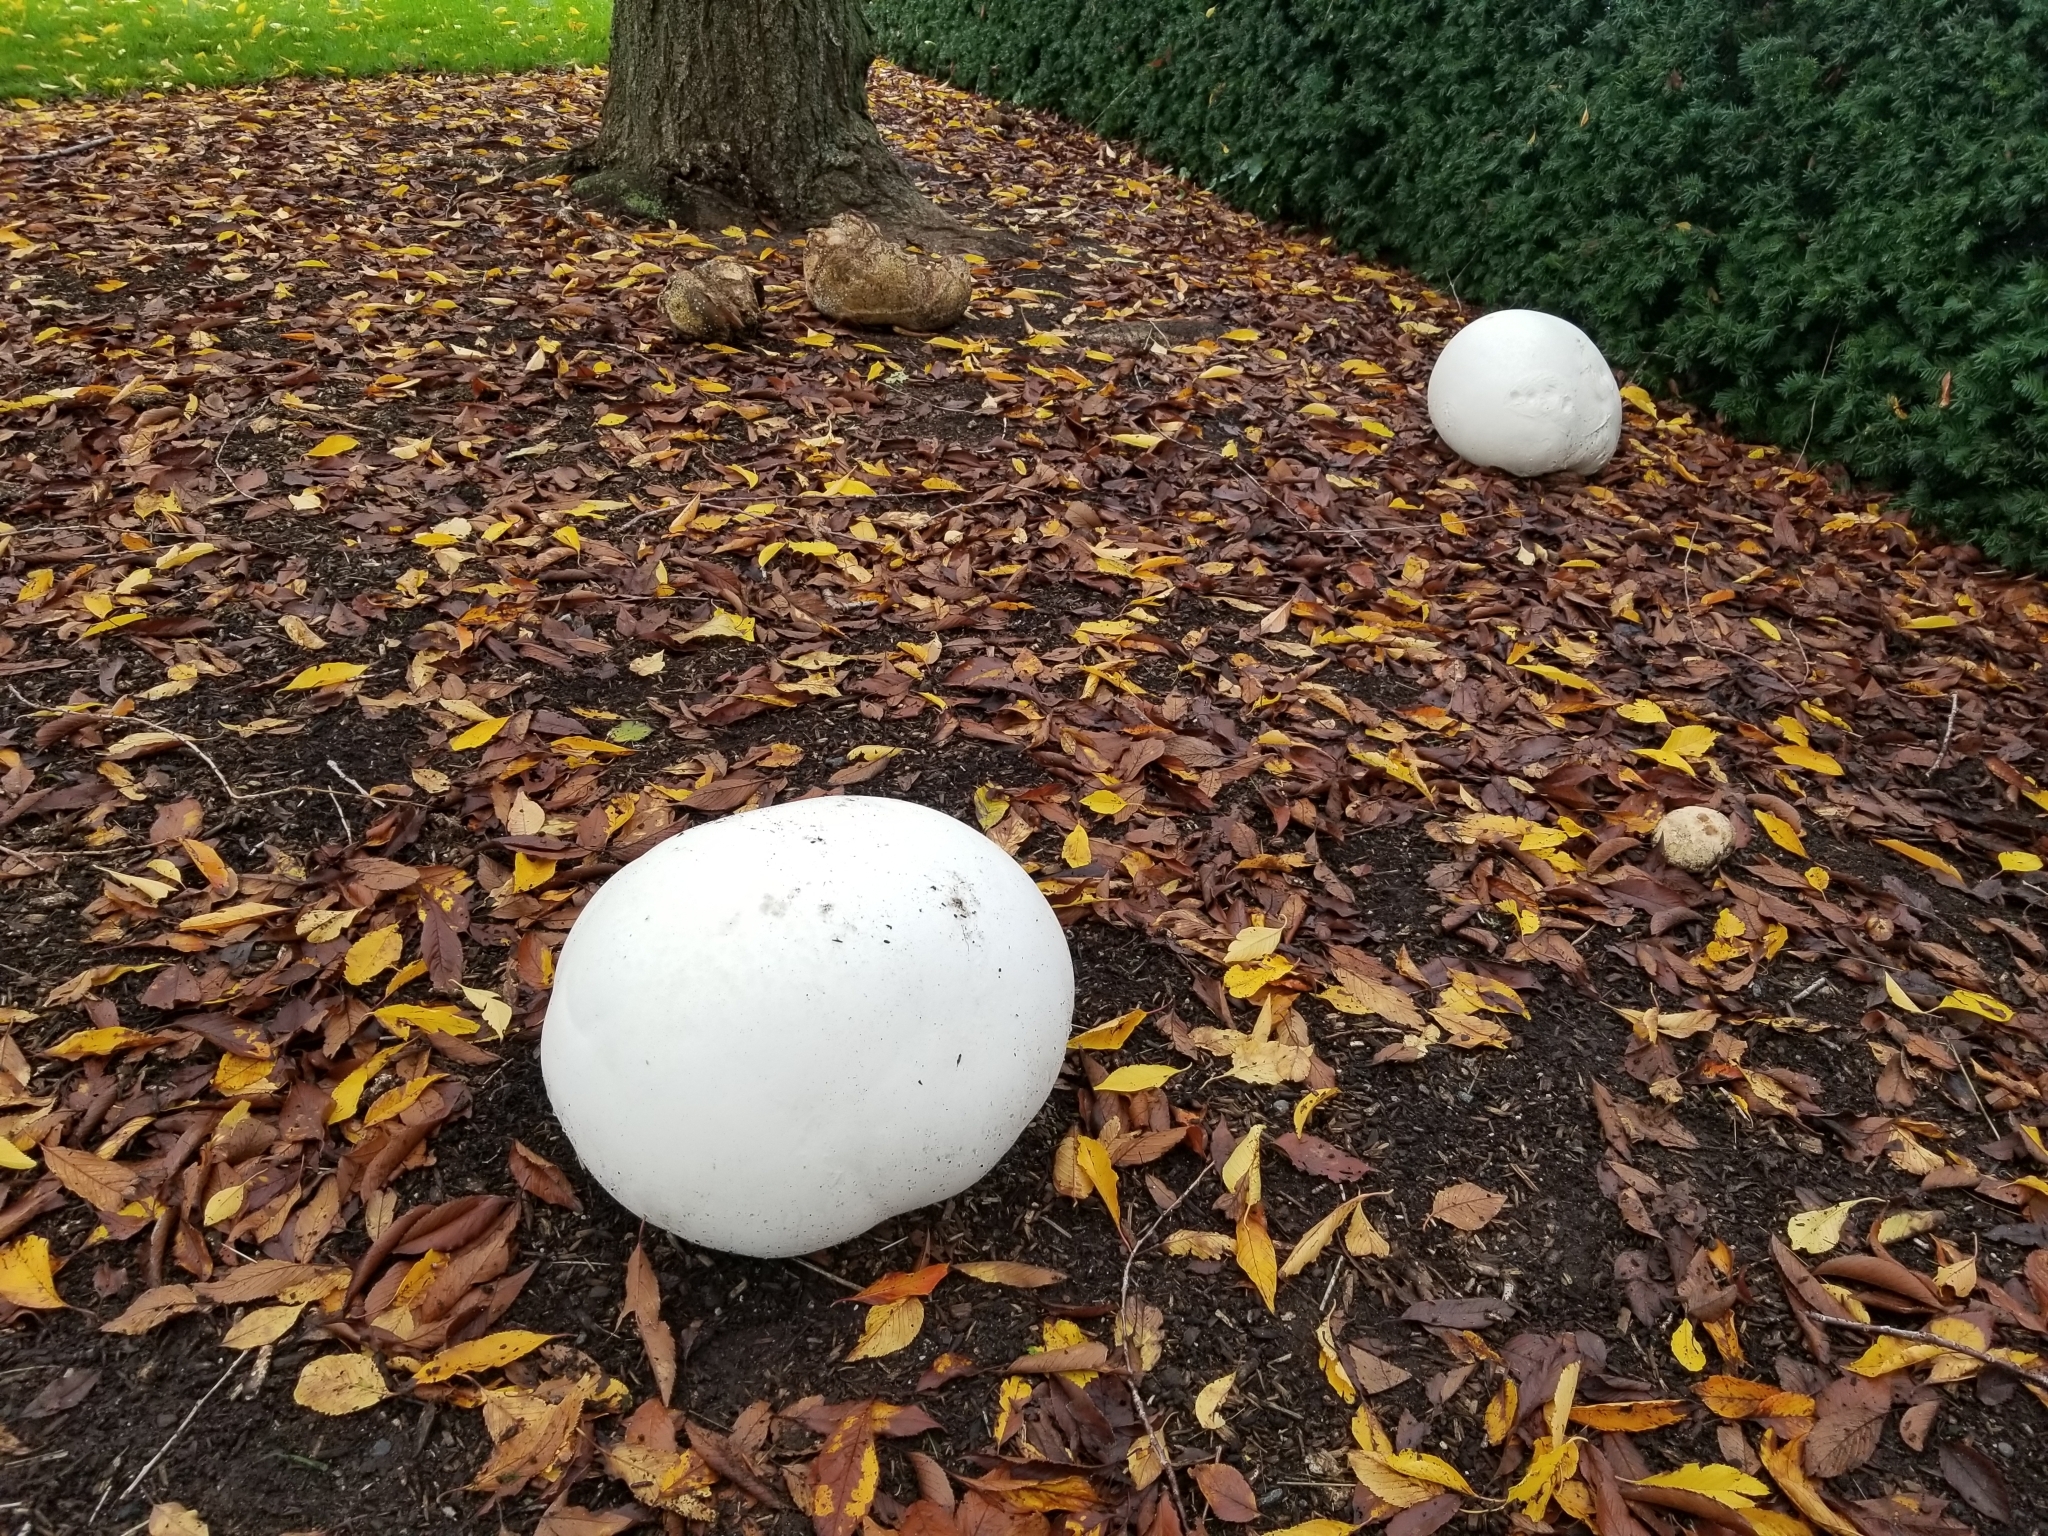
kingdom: Fungi
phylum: Basidiomycota
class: Agaricomycetes
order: Agaricales
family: Lycoperdaceae
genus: Calvatia
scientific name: Calvatia gigantea
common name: Giant puffball
